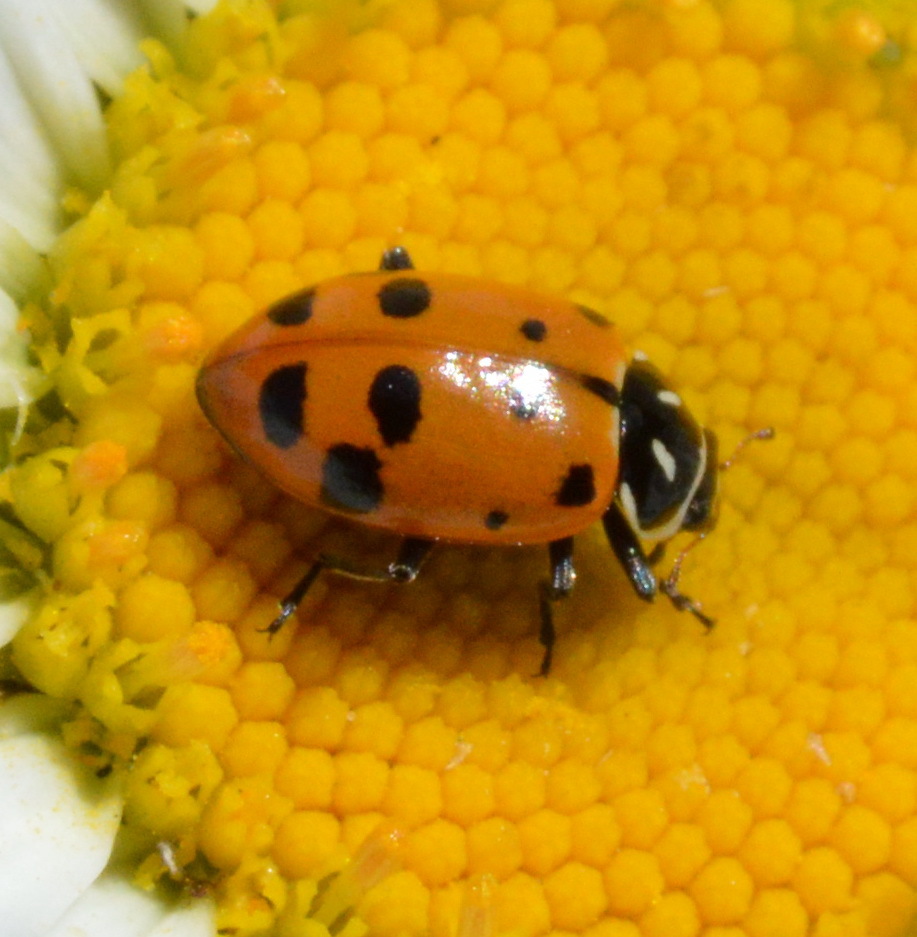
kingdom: Animalia
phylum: Arthropoda
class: Insecta
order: Coleoptera
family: Coccinellidae
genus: Hippodamia
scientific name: Hippodamia convergens
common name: Convergent lady beetle
